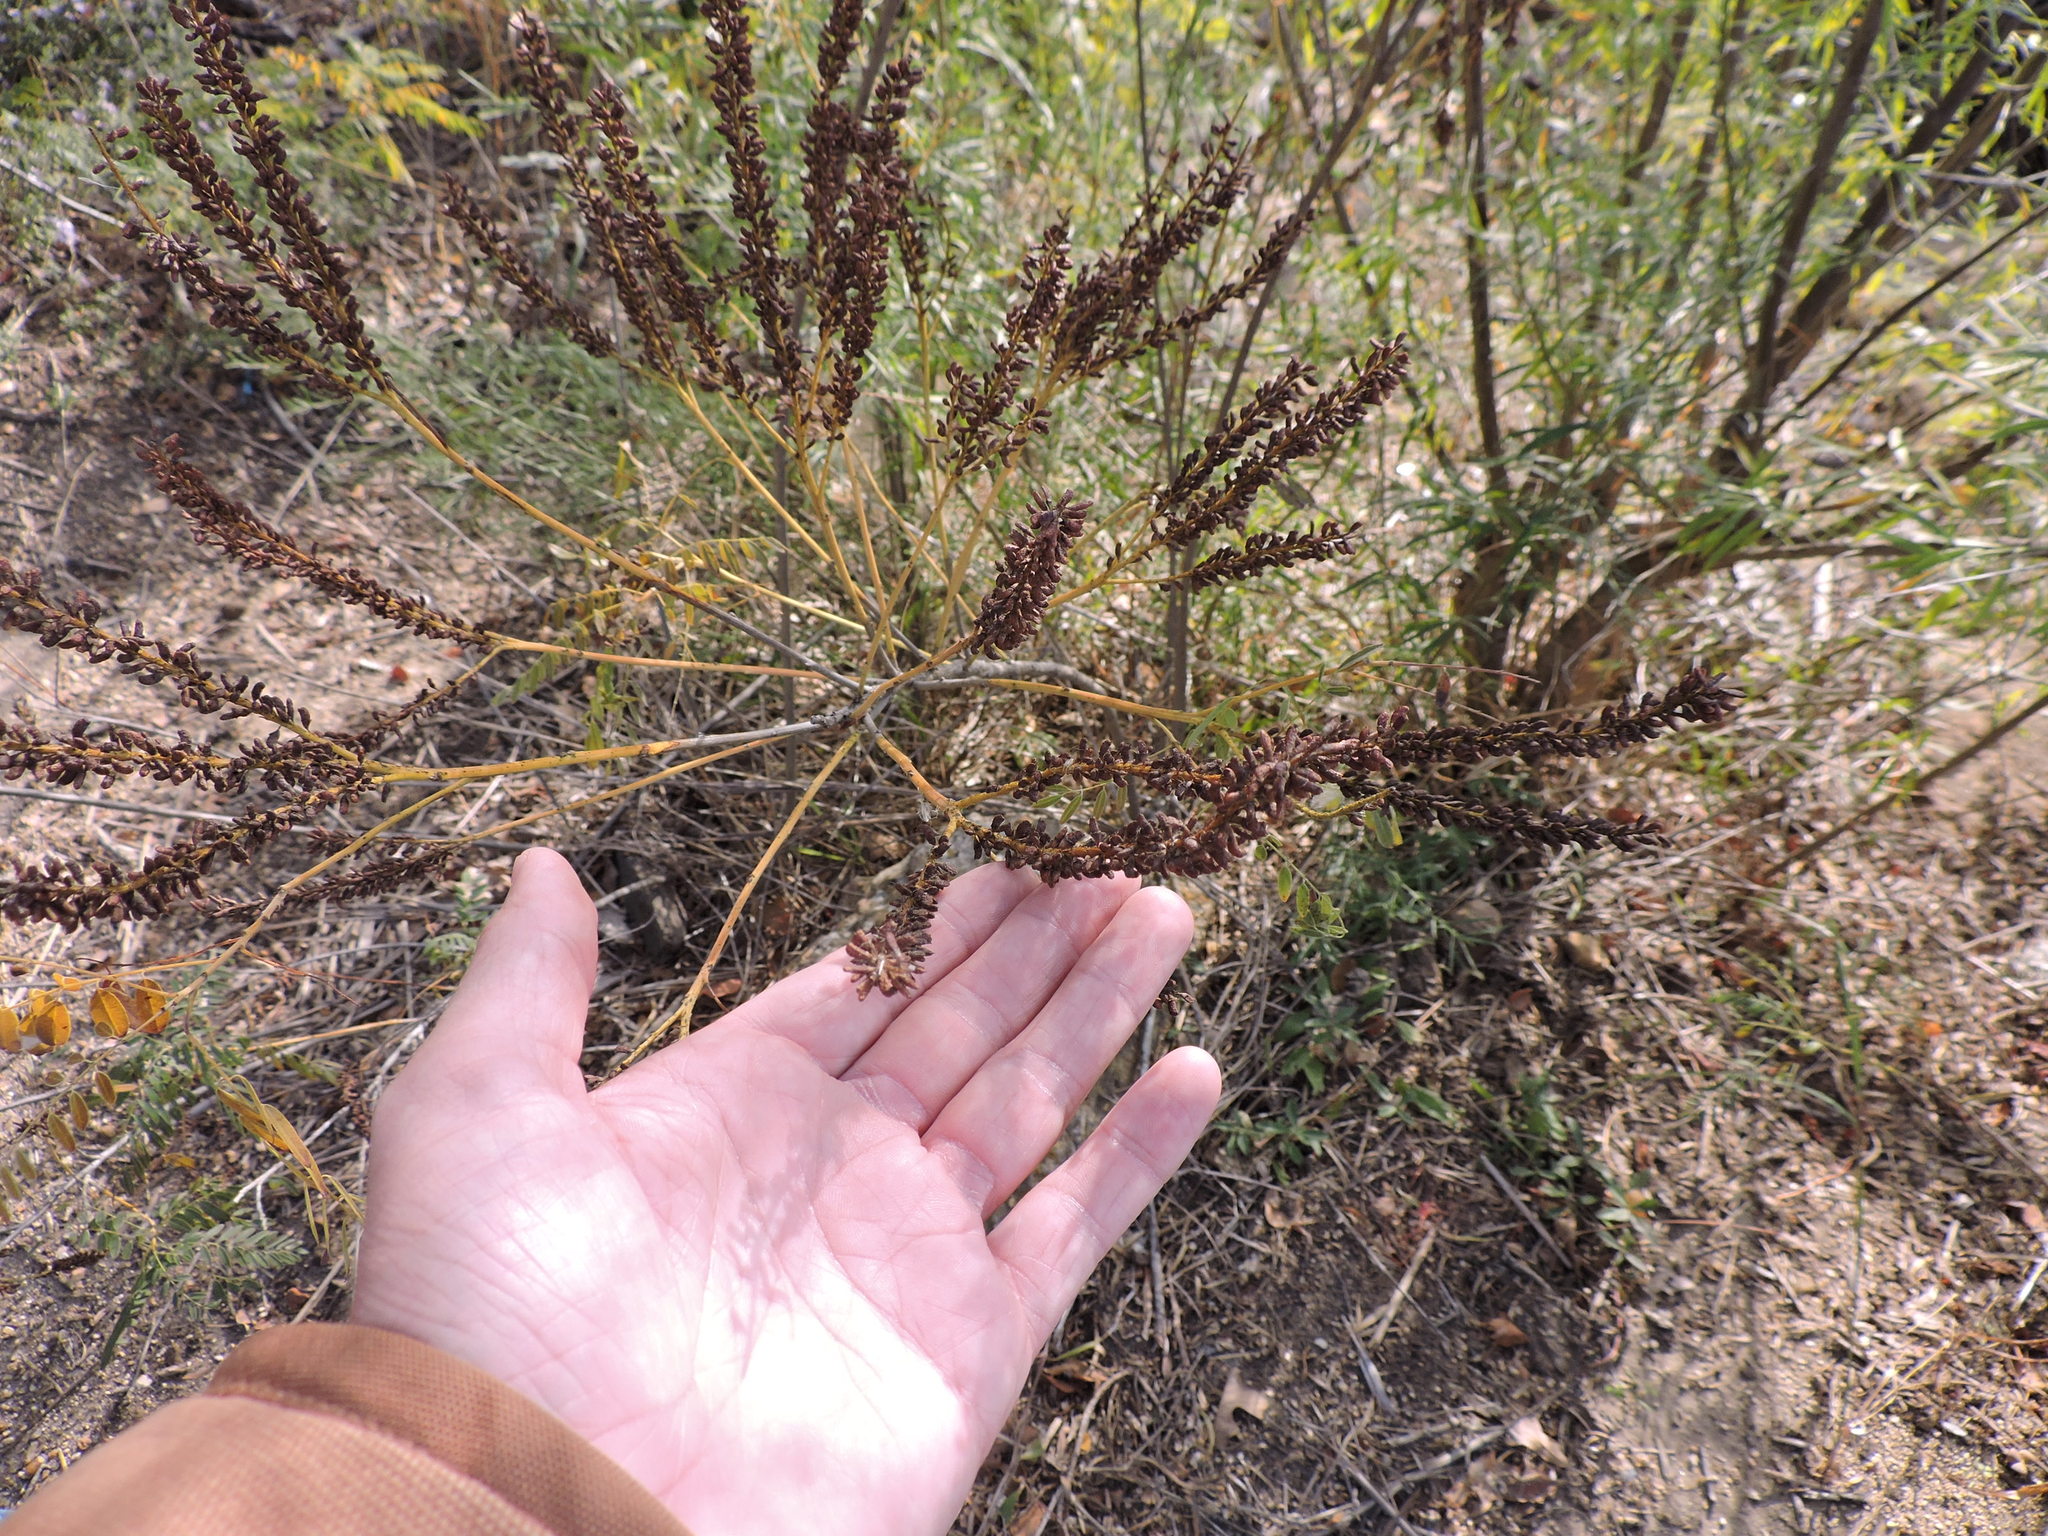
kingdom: Plantae
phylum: Tracheophyta
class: Magnoliopsida
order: Fabales
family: Fabaceae
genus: Amorpha
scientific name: Amorpha fruticosa
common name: False indigo
